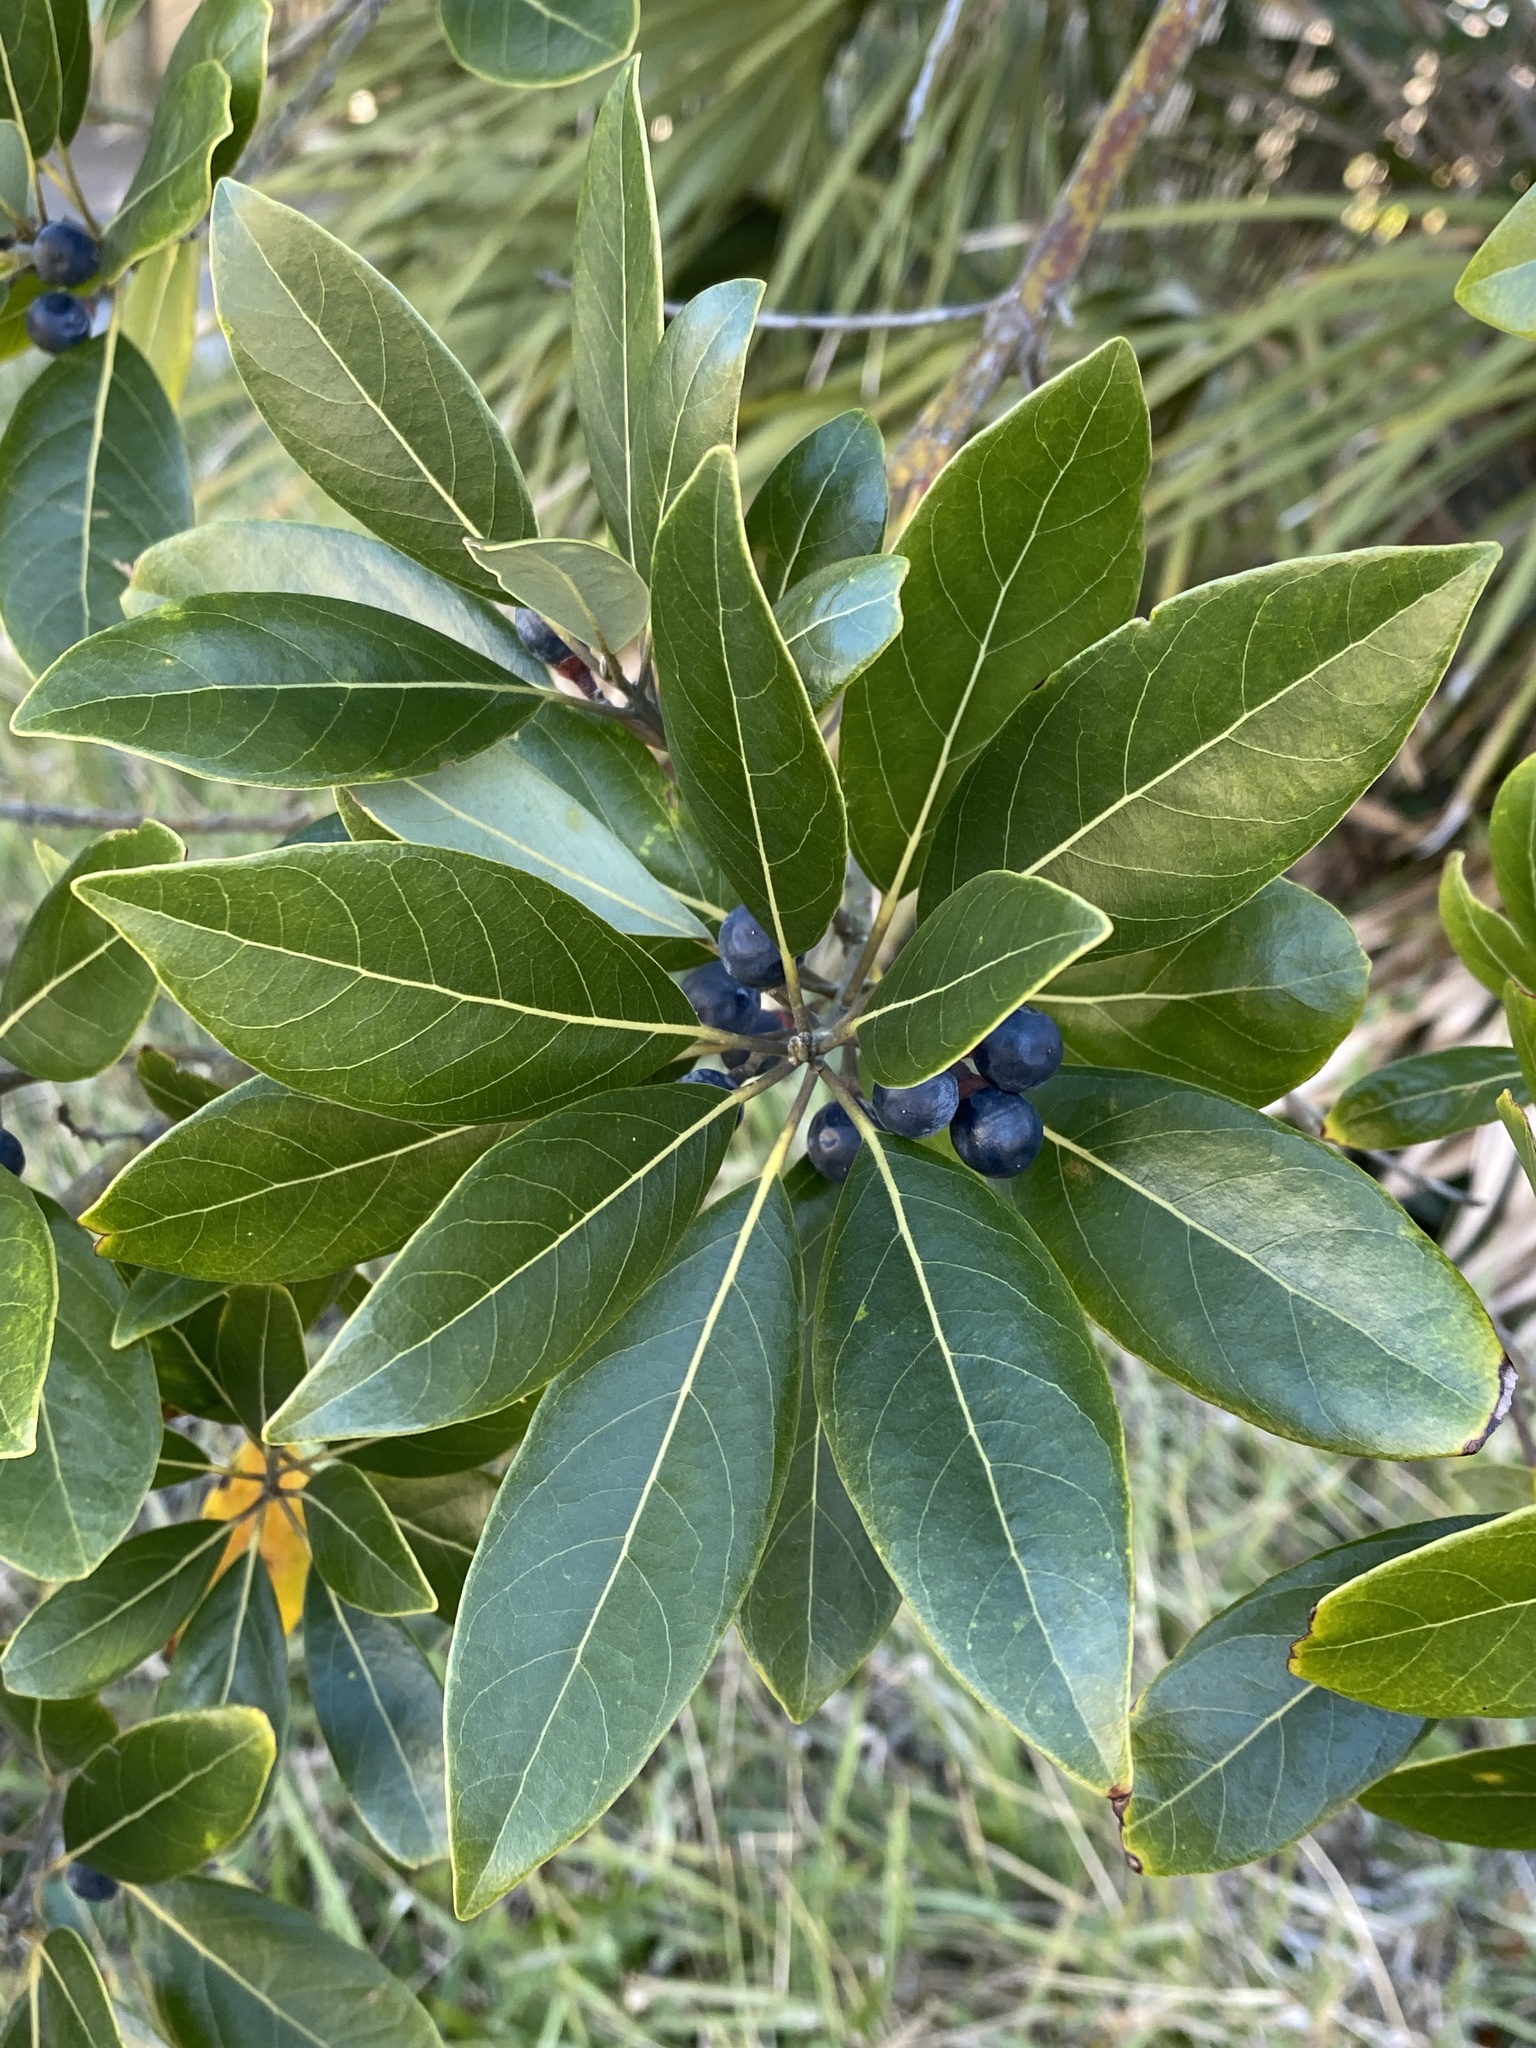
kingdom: Plantae
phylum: Tracheophyta
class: Magnoliopsida
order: Laurales
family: Lauraceae
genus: Persea
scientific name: Persea borbonia
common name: Redbay
